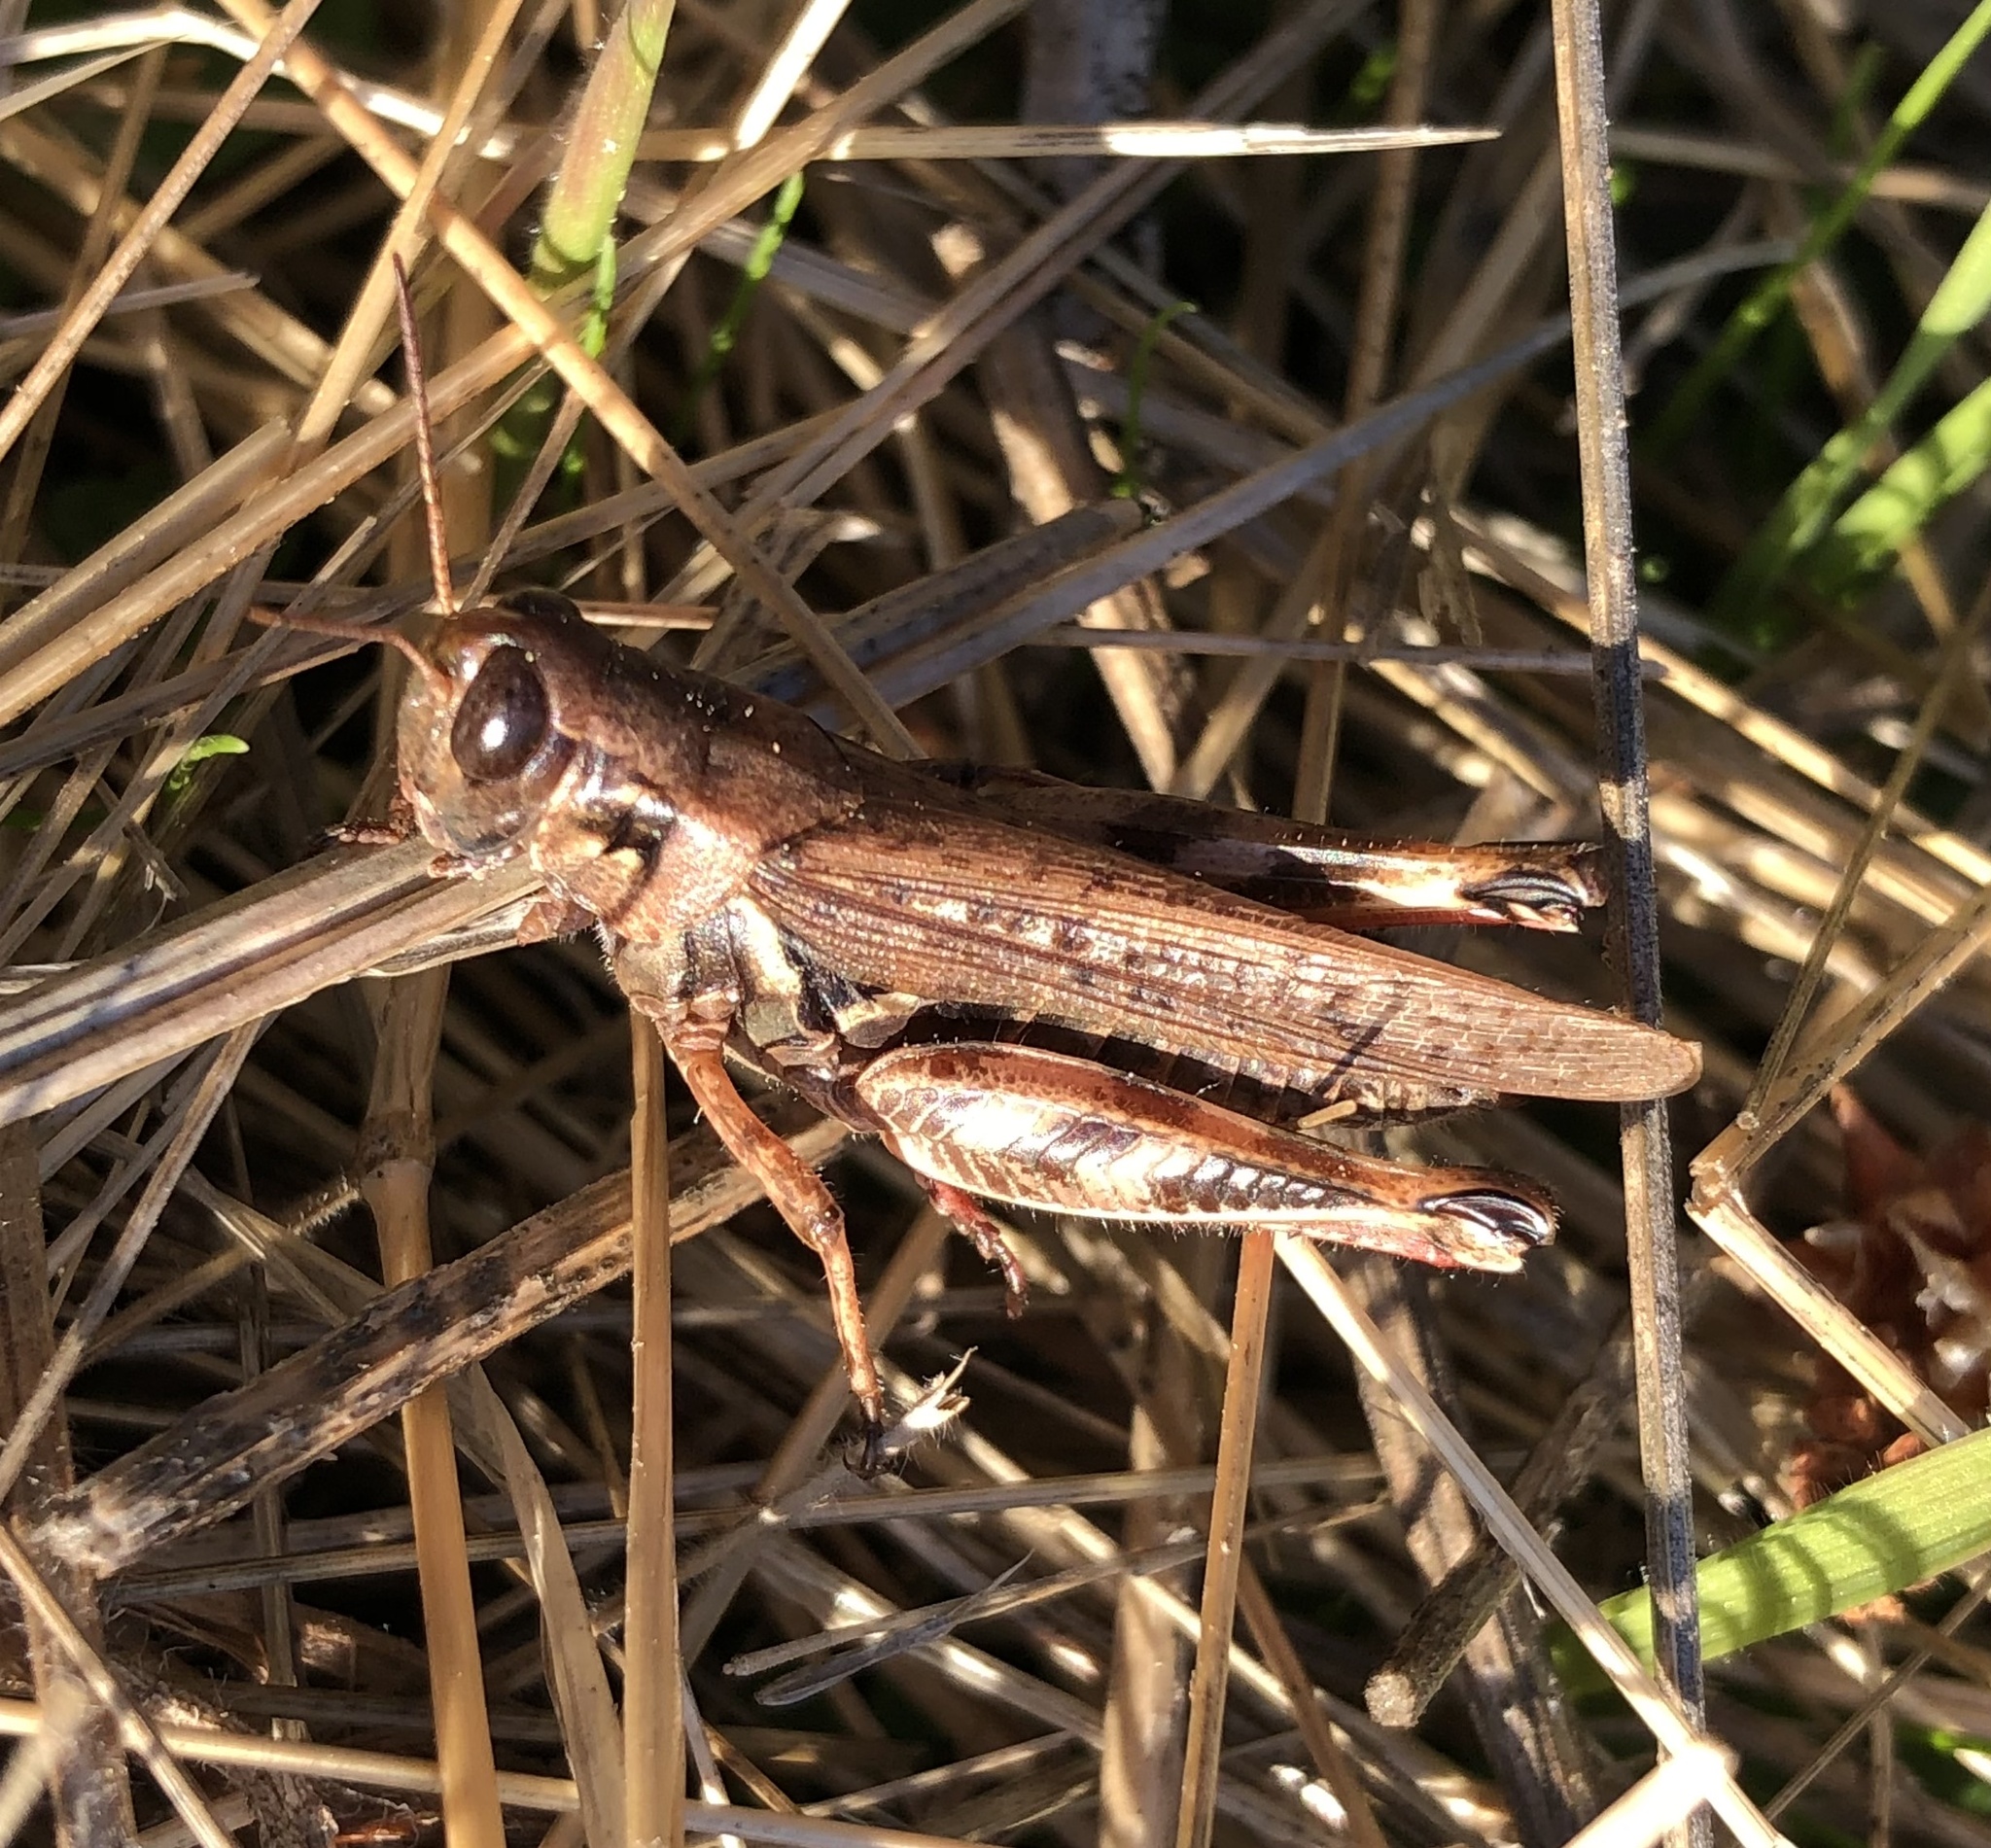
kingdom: Animalia
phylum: Arthropoda
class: Insecta
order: Orthoptera
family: Acrididae
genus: Melanoplus
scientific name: Melanoplus sanguinipes
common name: Migratory grasshopper
